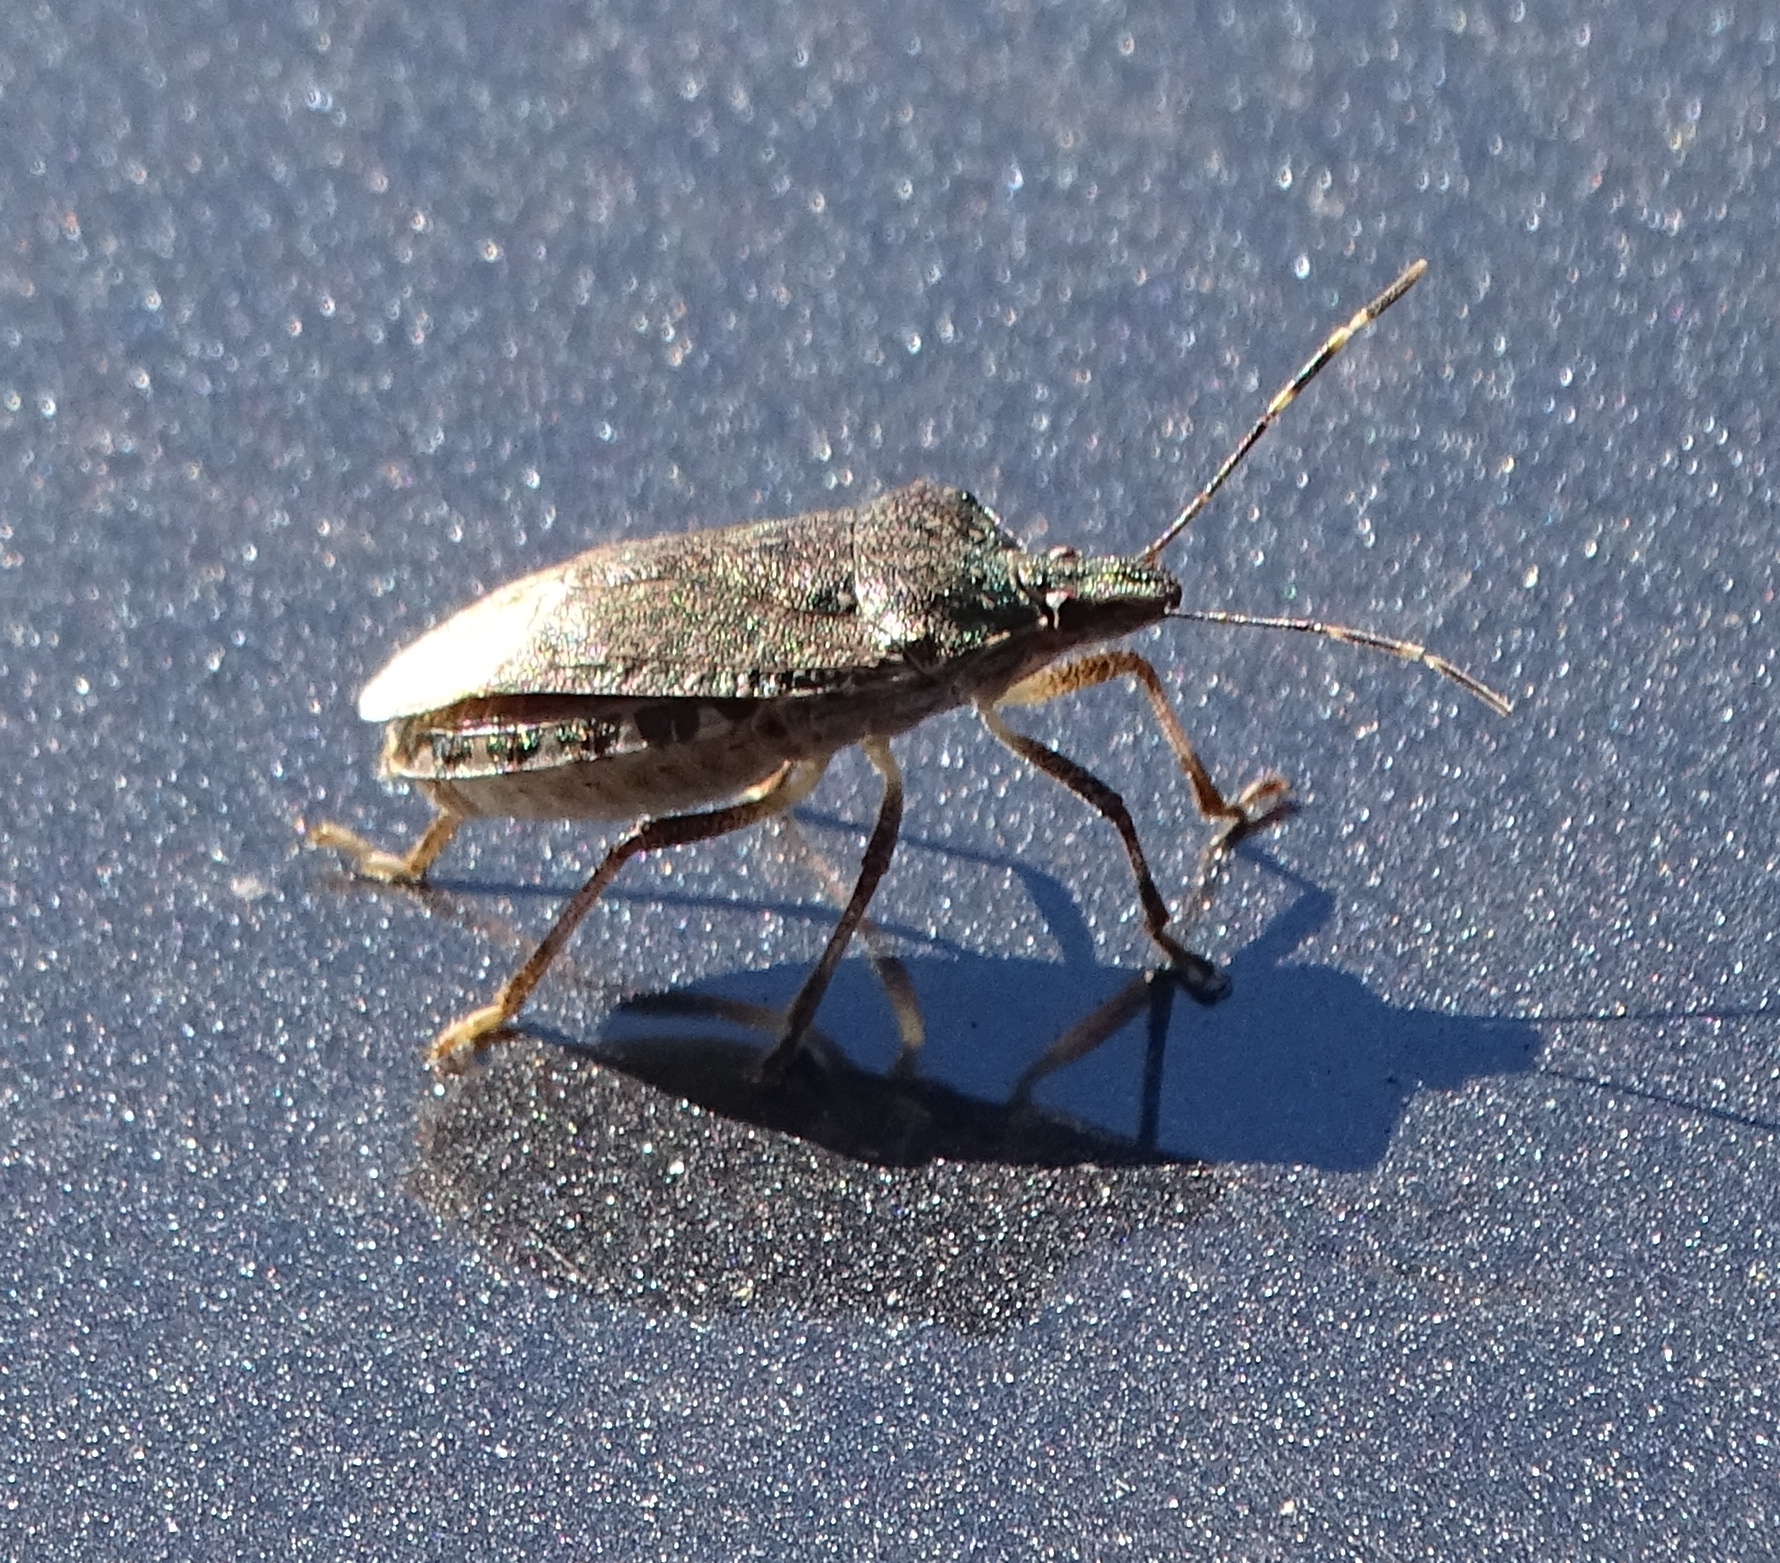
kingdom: Animalia
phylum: Arthropoda
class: Insecta
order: Hemiptera
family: Pentatomidae
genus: Halyomorpha
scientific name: Halyomorpha halys
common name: Brown marmorated stink bug
